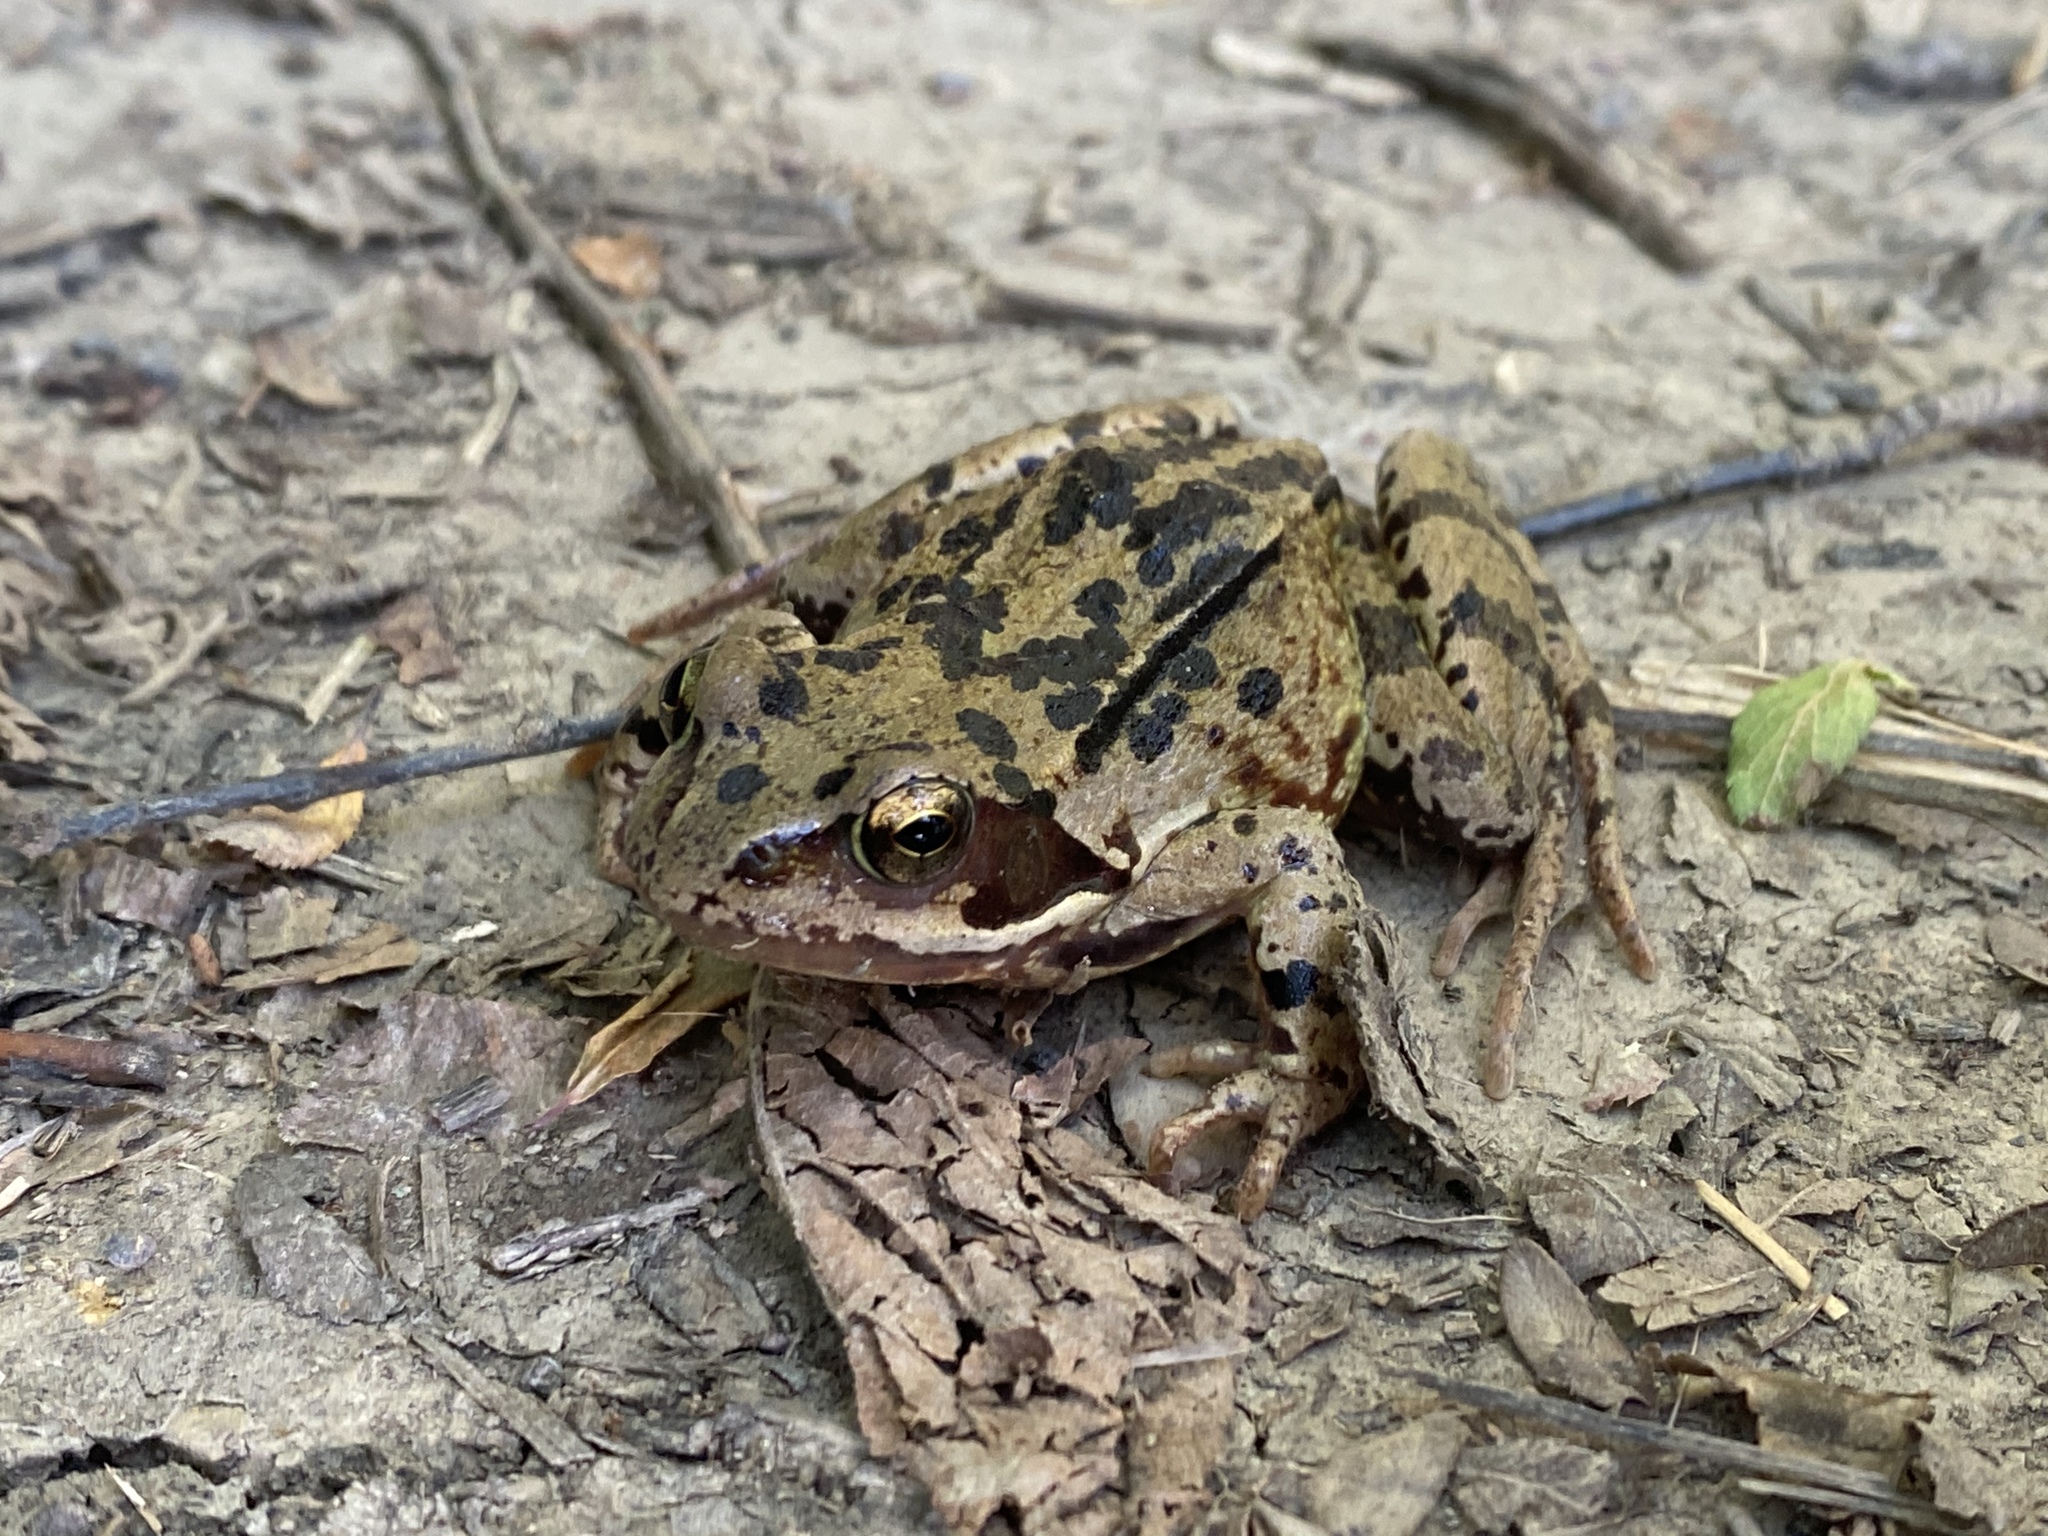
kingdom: Animalia
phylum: Chordata
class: Amphibia
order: Anura
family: Ranidae
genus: Rana
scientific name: Rana temporaria
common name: Common frog
